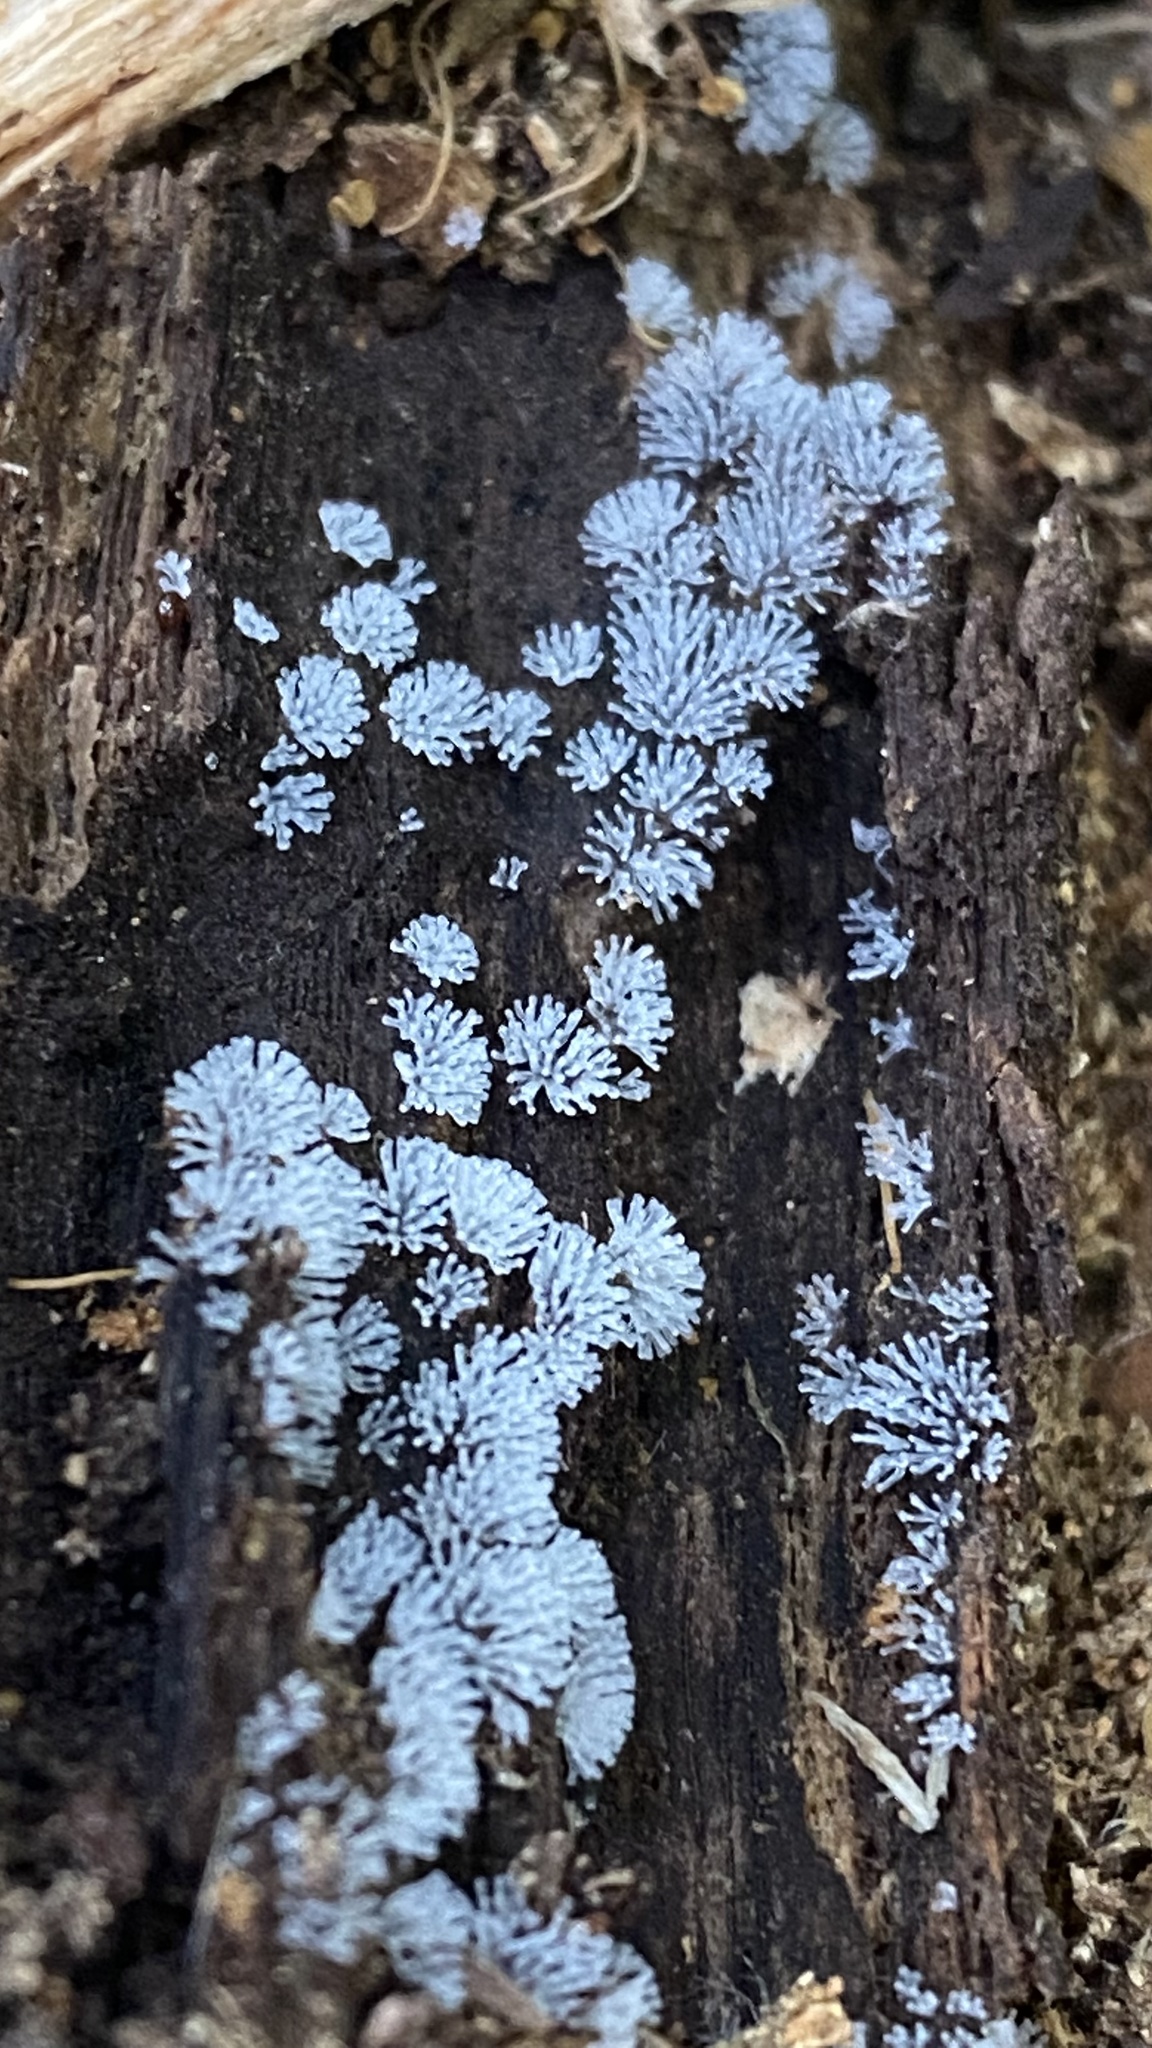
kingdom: Protozoa
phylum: Mycetozoa
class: Protosteliomycetes
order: Ceratiomyxales
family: Ceratiomyxaceae
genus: Ceratiomyxa
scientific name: Ceratiomyxa fruticulosa
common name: Honeycomb coral slime mold
